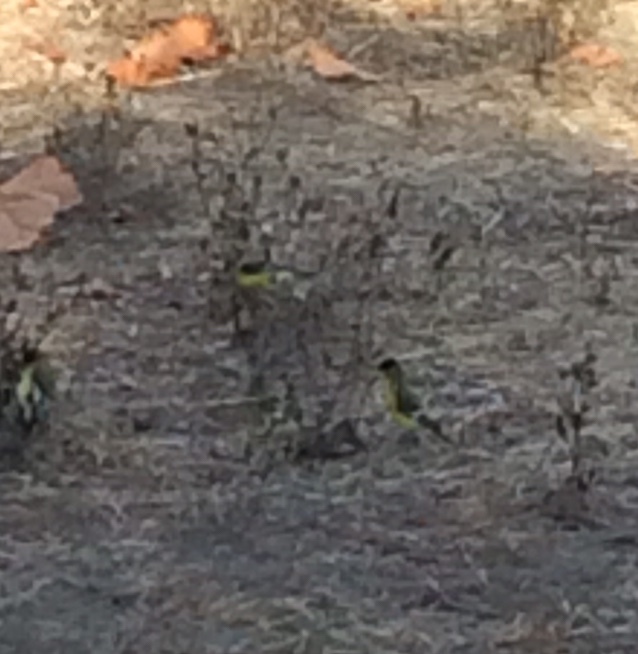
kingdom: Animalia
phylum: Chordata
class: Aves
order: Passeriformes
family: Fringillidae
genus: Spinus
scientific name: Spinus psaltria
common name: Lesser goldfinch
